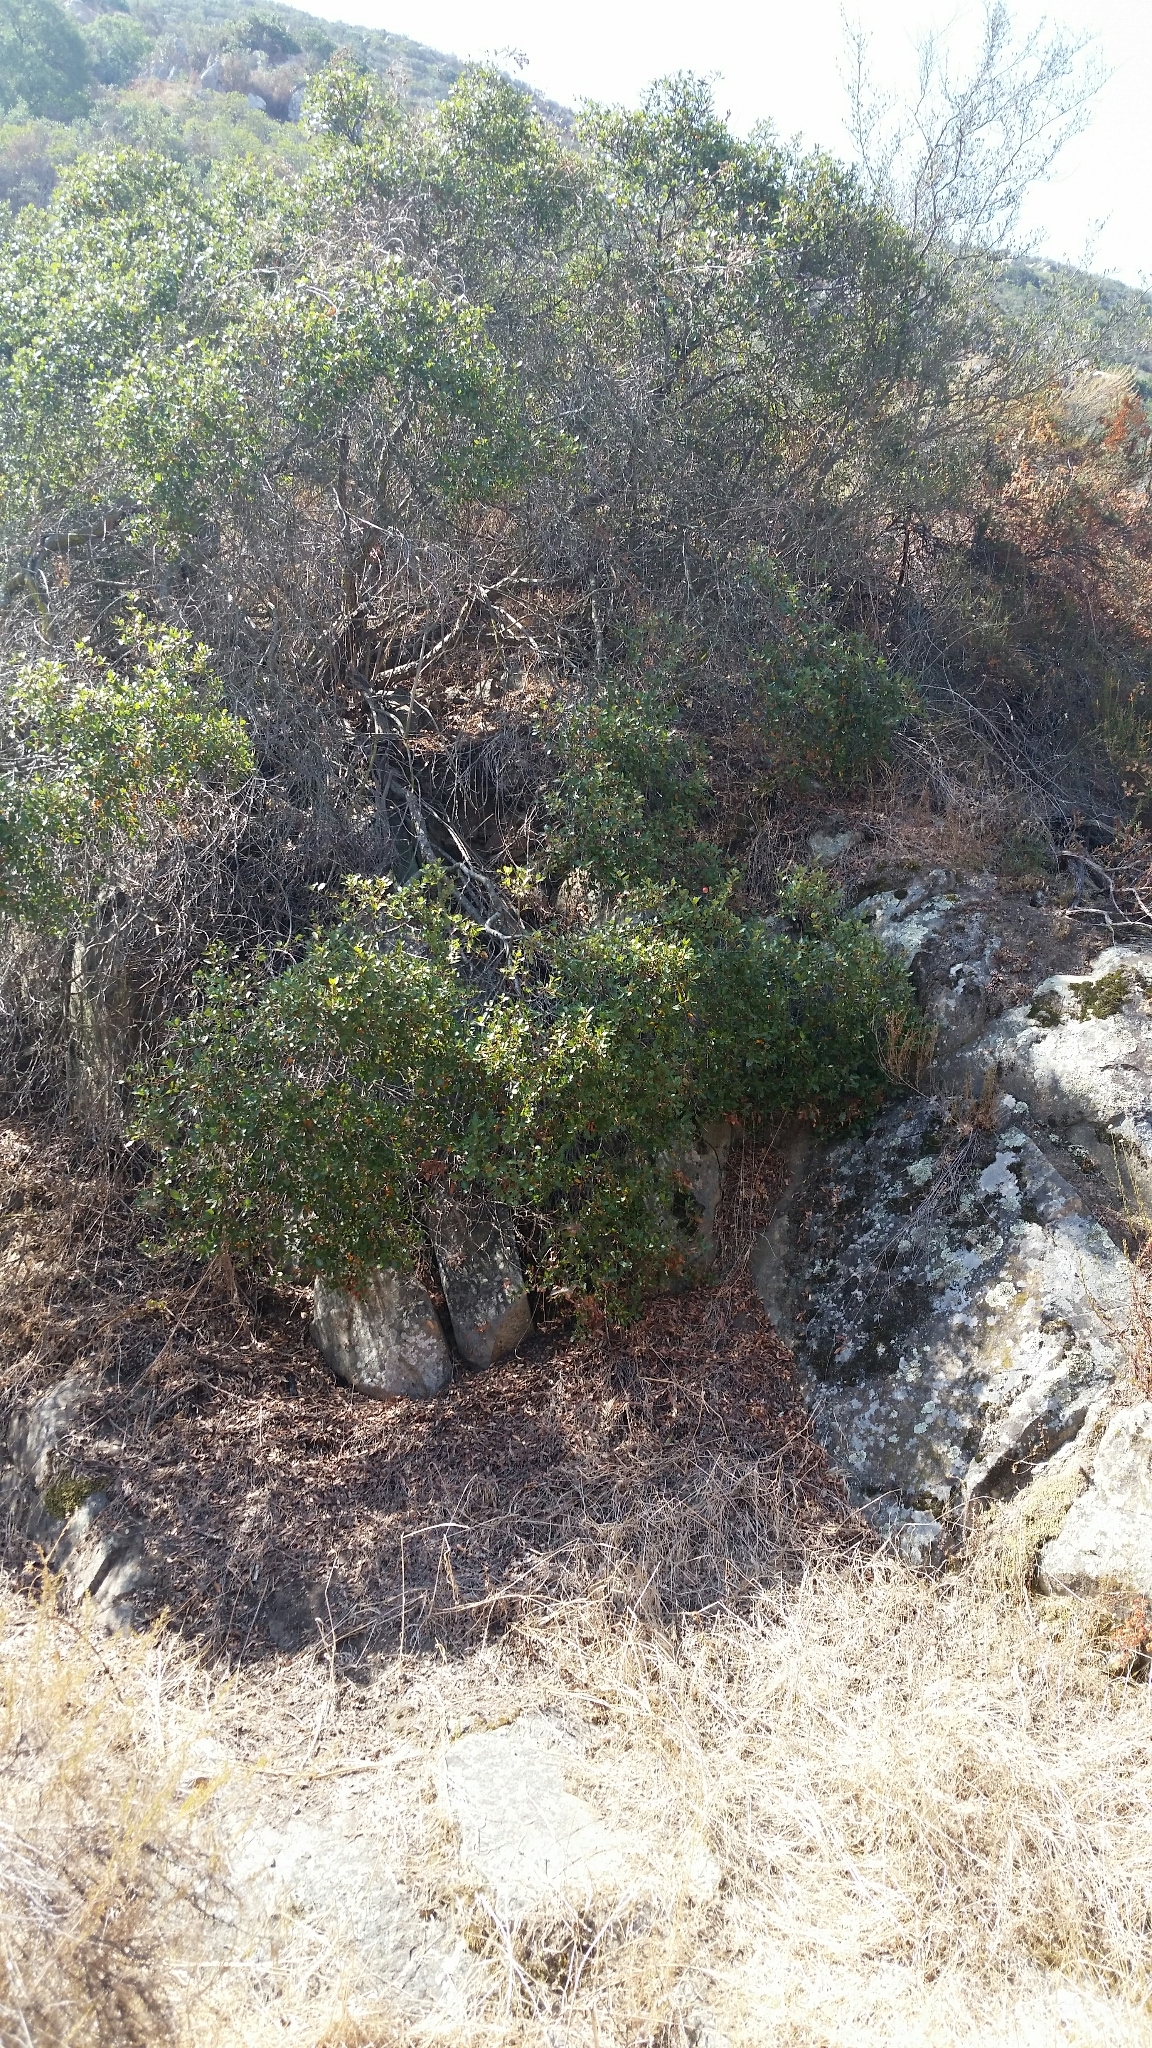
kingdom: Plantae
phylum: Tracheophyta
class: Magnoliopsida
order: Fagales
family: Fagaceae
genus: Quercus
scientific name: Quercus acutidens
